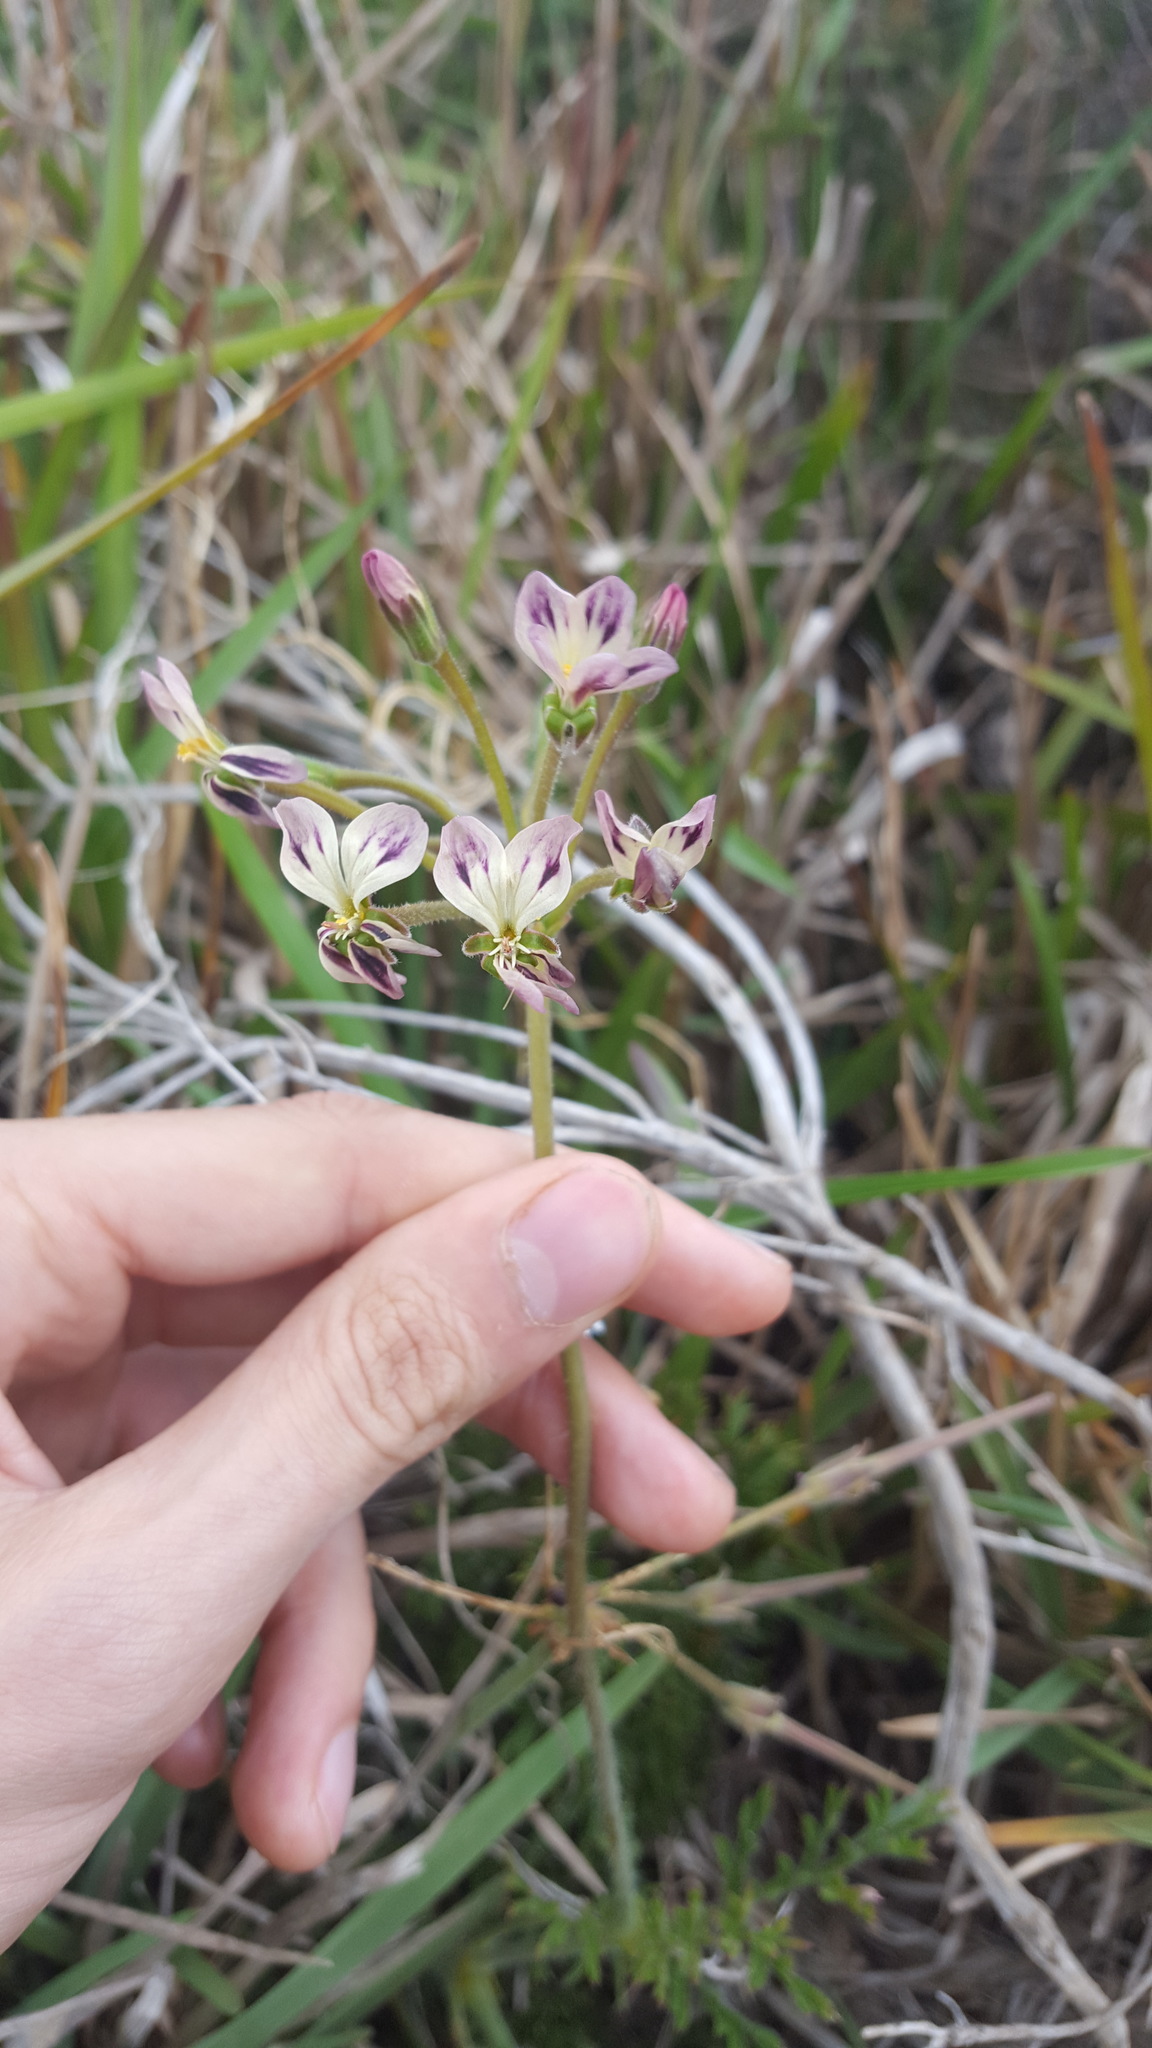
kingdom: Plantae
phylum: Tracheophyta
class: Magnoliopsida
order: Geraniales
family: Geraniaceae
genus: Pelargonium
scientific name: Pelargonium triste
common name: Night-scent pelargonium
